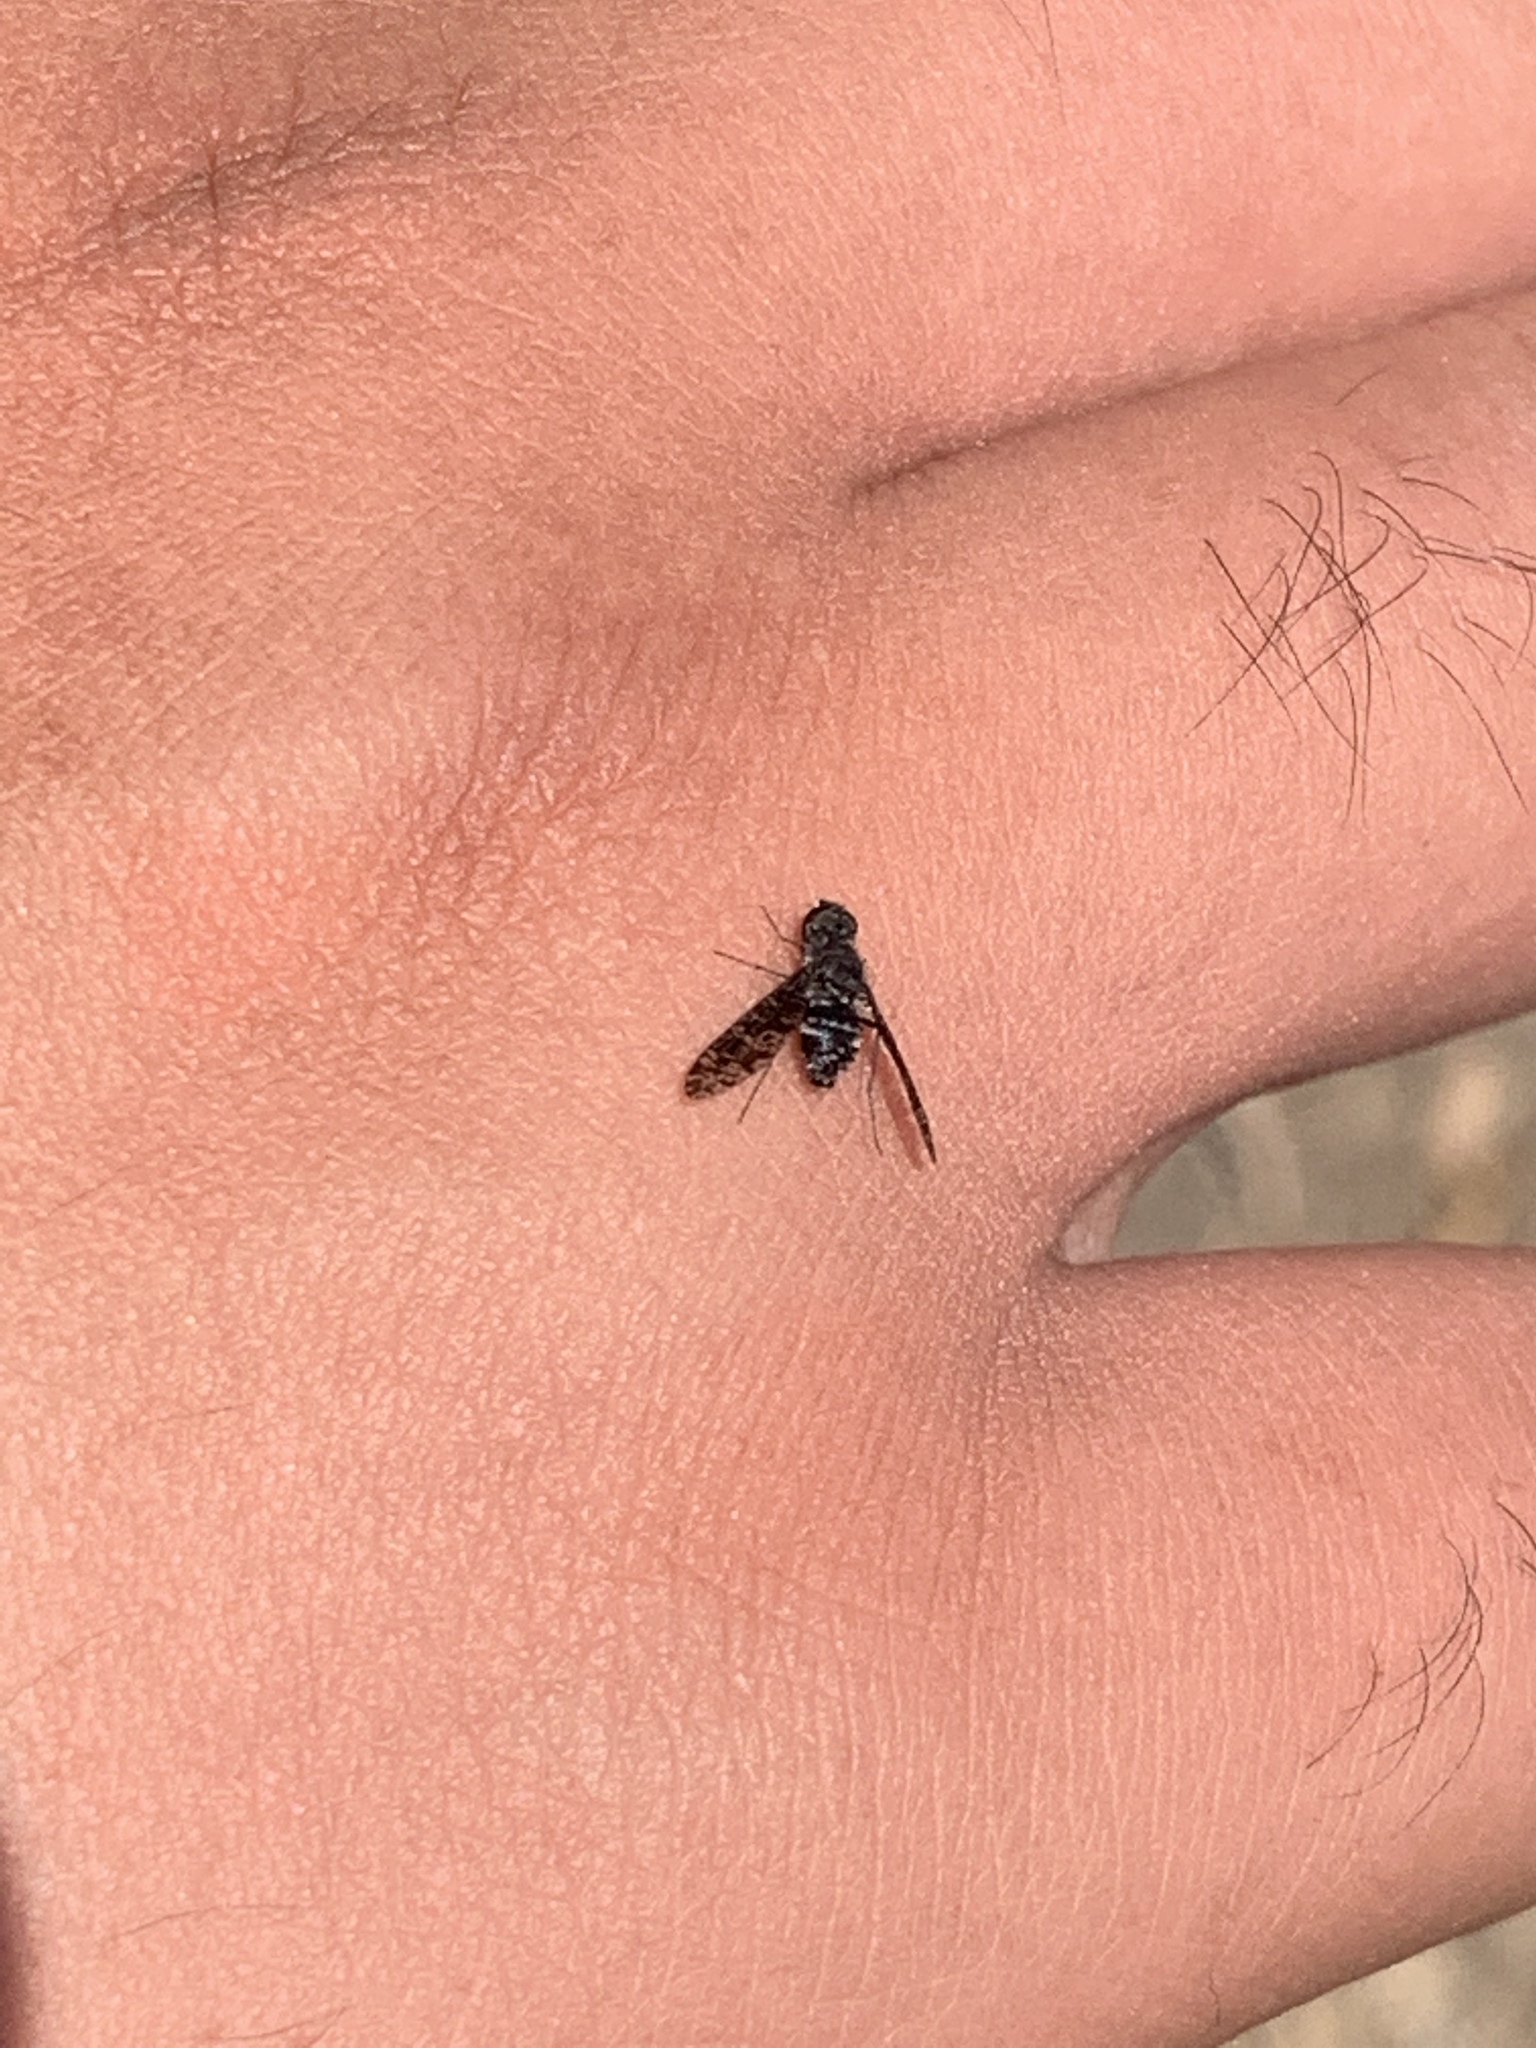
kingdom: Animalia
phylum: Arthropoda
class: Insecta
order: Diptera
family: Bombyliidae
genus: Anthrax
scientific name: Anthrax
